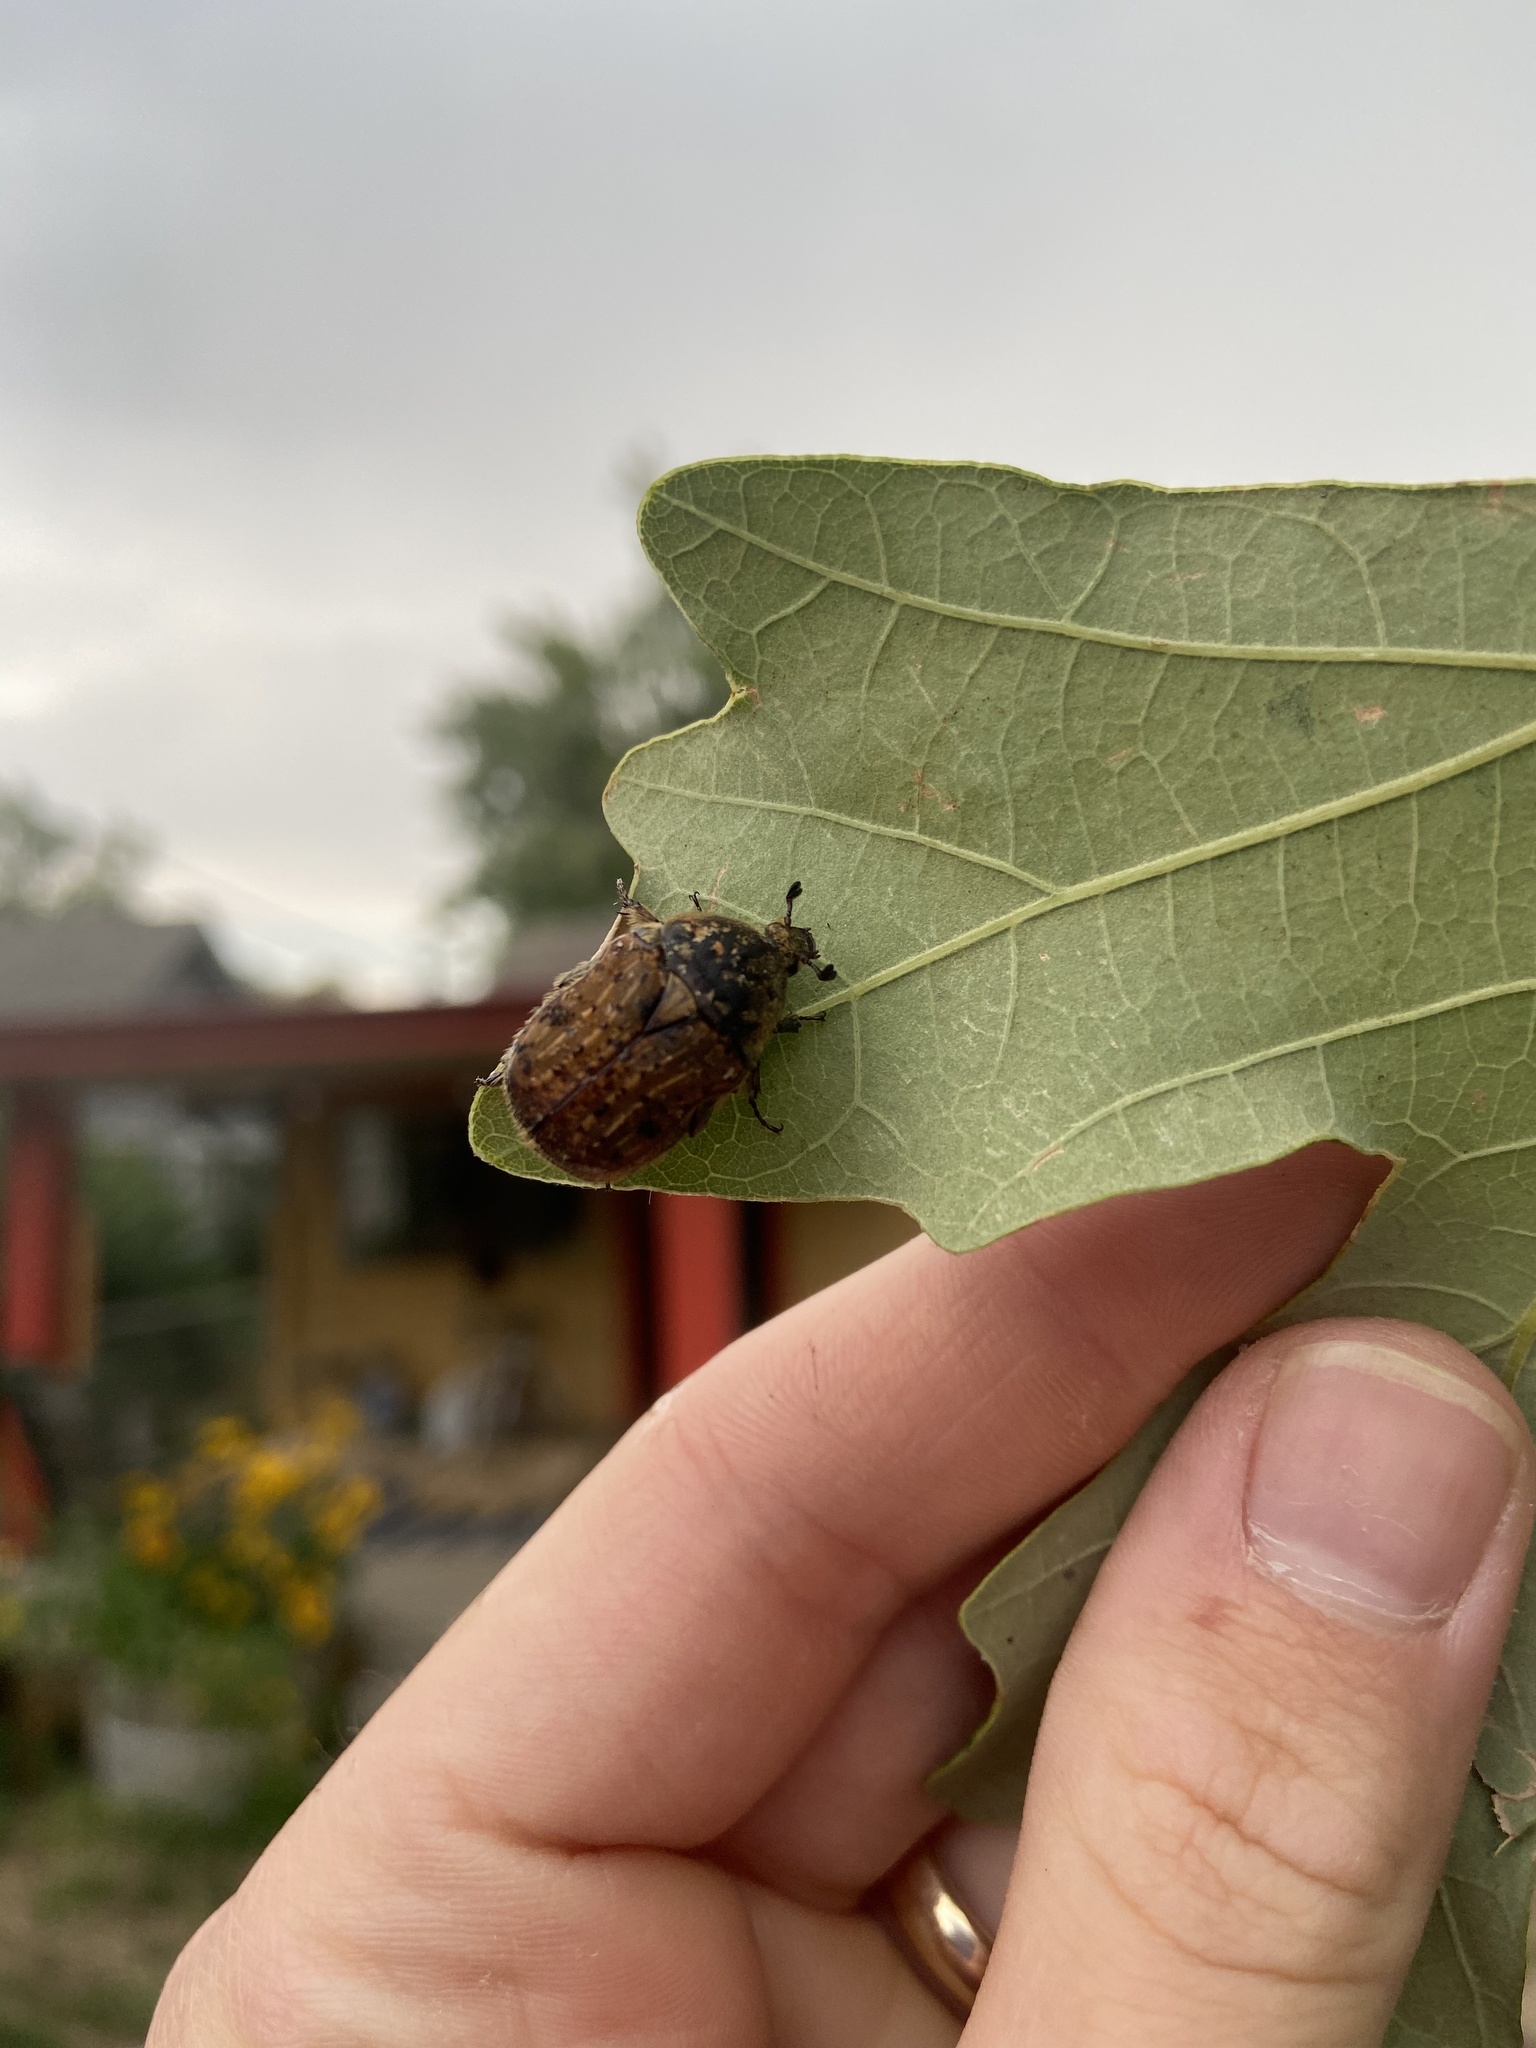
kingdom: Animalia
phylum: Arthropoda
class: Insecta
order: Coleoptera
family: Scarabaeidae
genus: Euphoria
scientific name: Euphoria inda
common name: Bumble flower beetle
